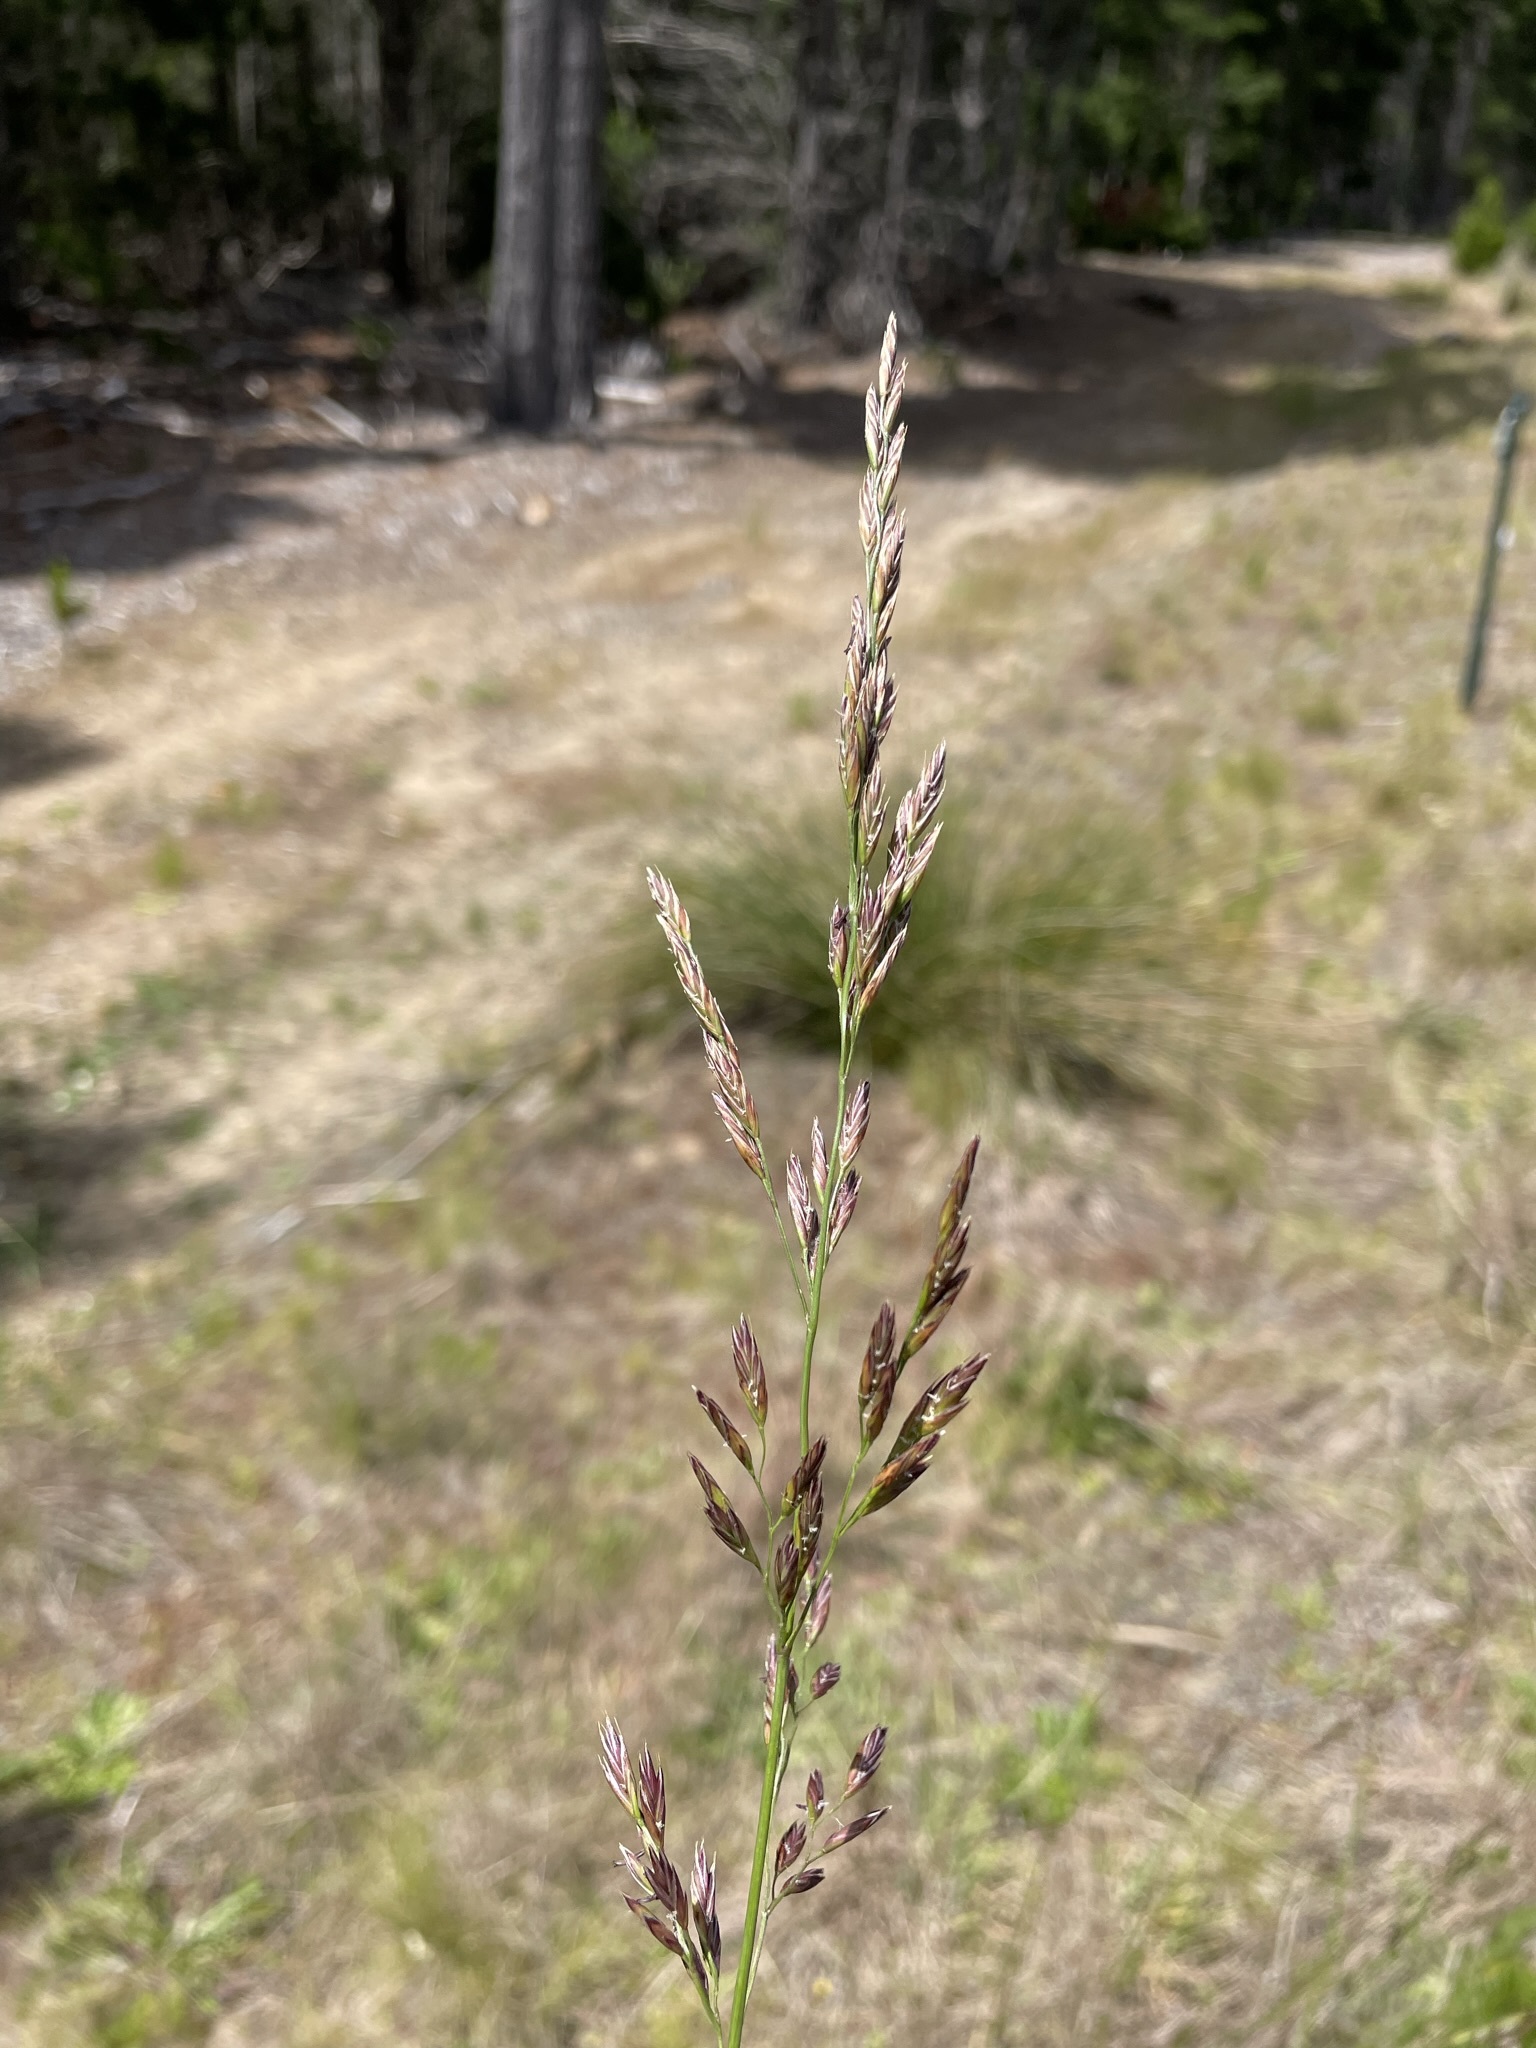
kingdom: Plantae
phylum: Tracheophyta
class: Liliopsida
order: Poales
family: Poaceae
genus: Lolium
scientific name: Lolium arundinaceum
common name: Reed fescue
